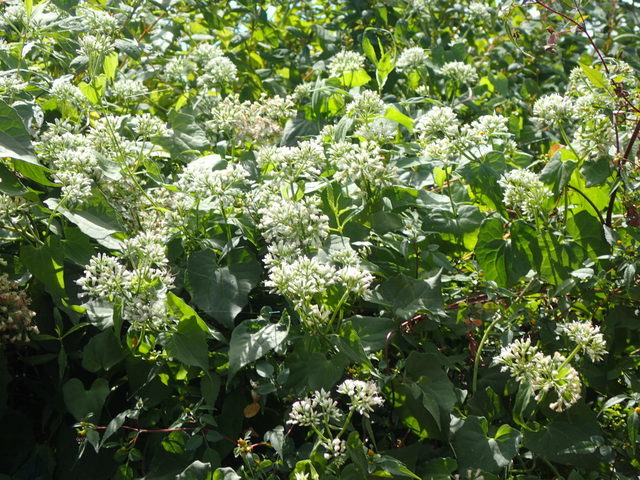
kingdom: Plantae
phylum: Tracheophyta
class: Magnoliopsida
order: Asterales
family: Asteraceae
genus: Mikania
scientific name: Mikania scandens
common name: Climbing hempvine
